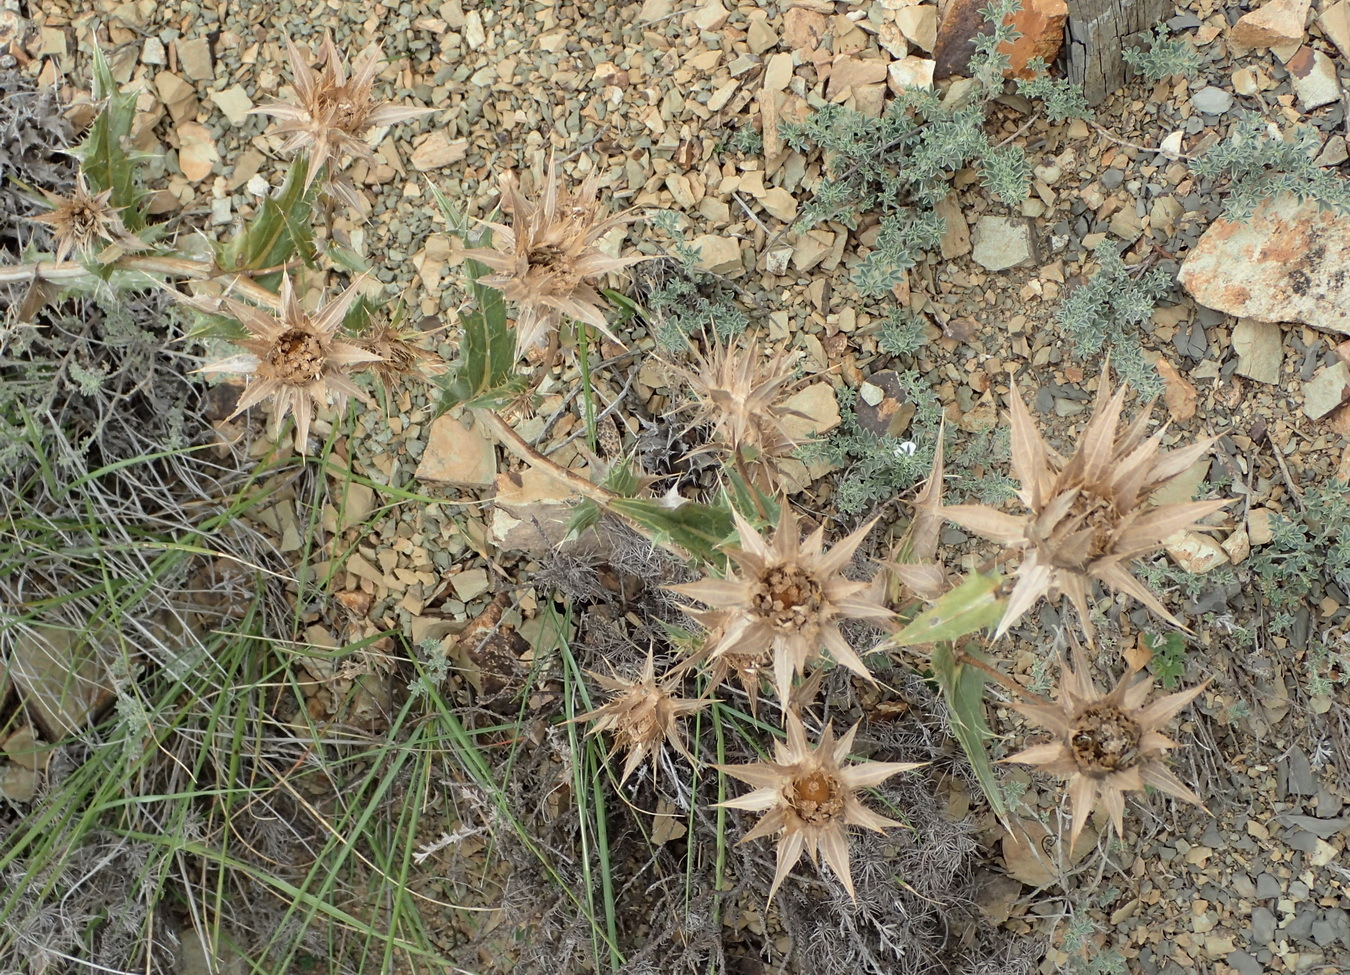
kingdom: Plantae
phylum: Tracheophyta
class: Magnoliopsida
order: Asterales
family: Asteraceae
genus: Berkheya
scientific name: Berkheya carlinifolia
